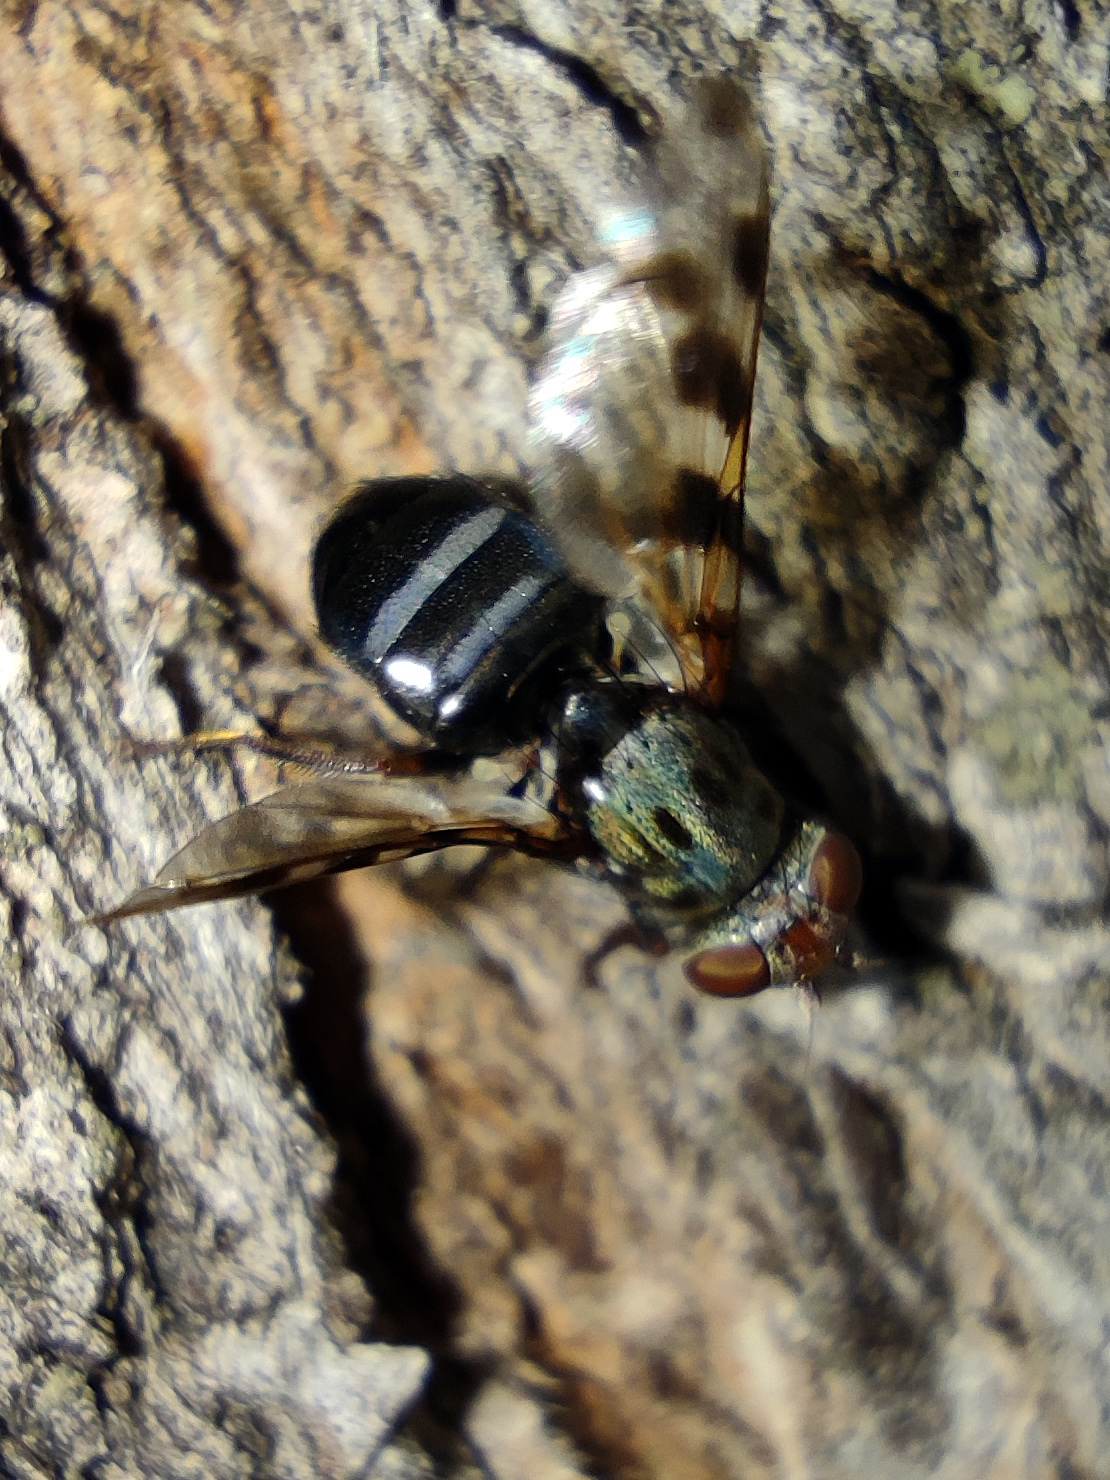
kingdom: Animalia
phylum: Arthropoda
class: Insecta
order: Diptera
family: Ulidiidae
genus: Ceroxys
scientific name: Ceroxys hyalinata
